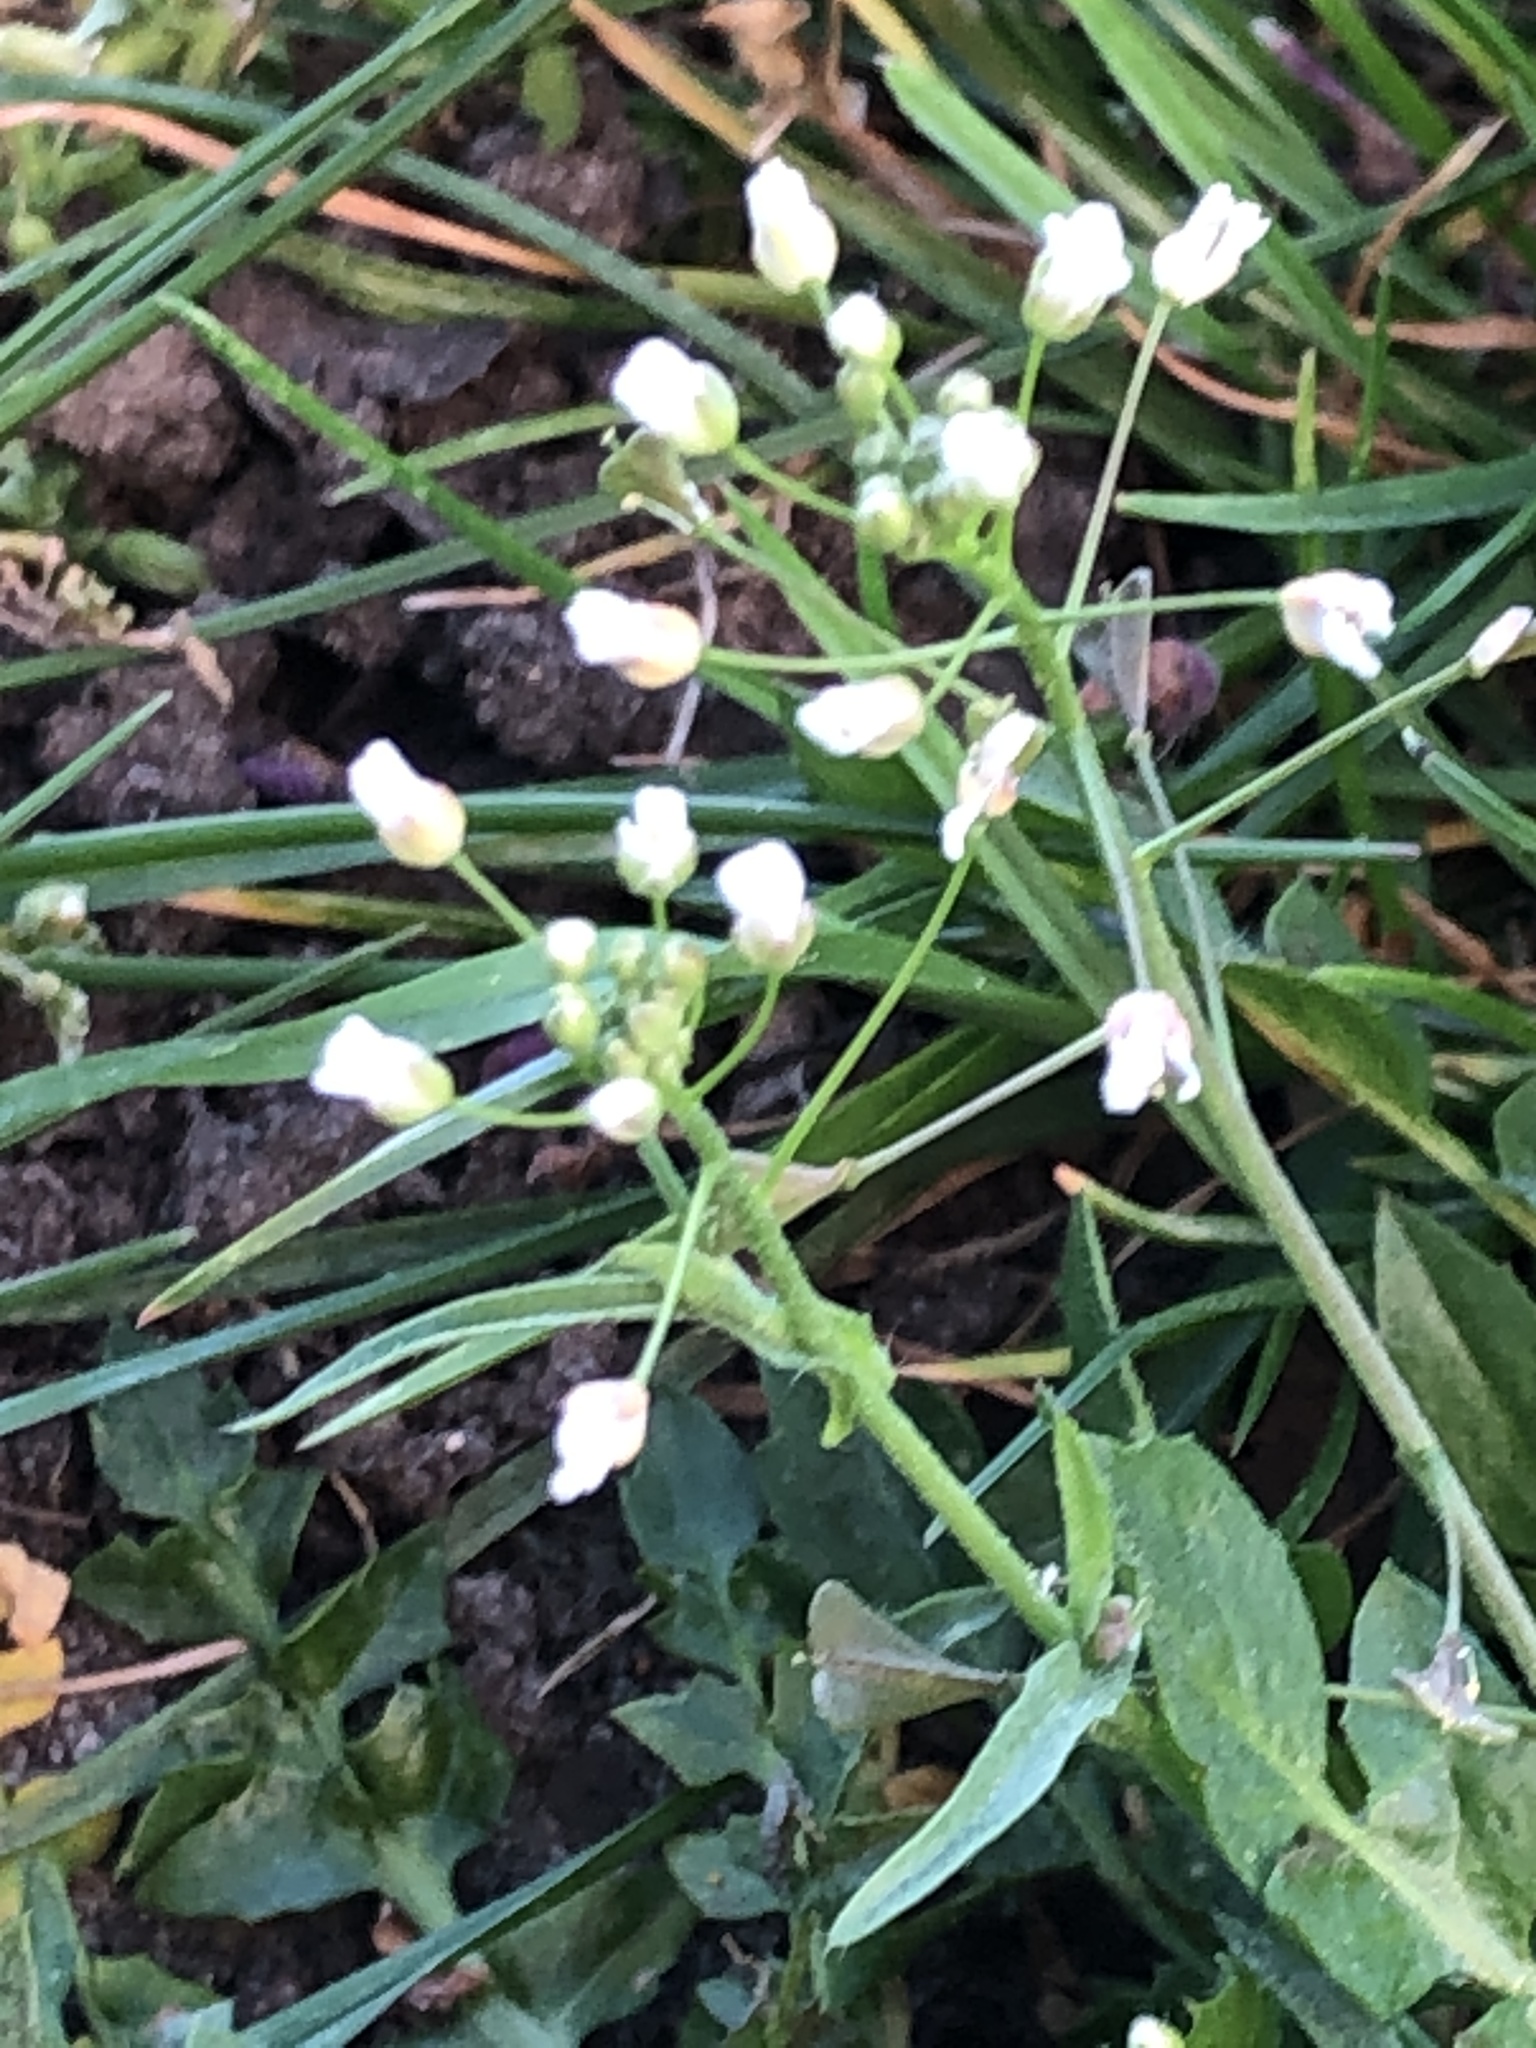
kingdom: Plantae
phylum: Tracheophyta
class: Magnoliopsida
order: Brassicales
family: Brassicaceae
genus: Capsella
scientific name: Capsella bursa-pastoris
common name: Shepherd's purse
